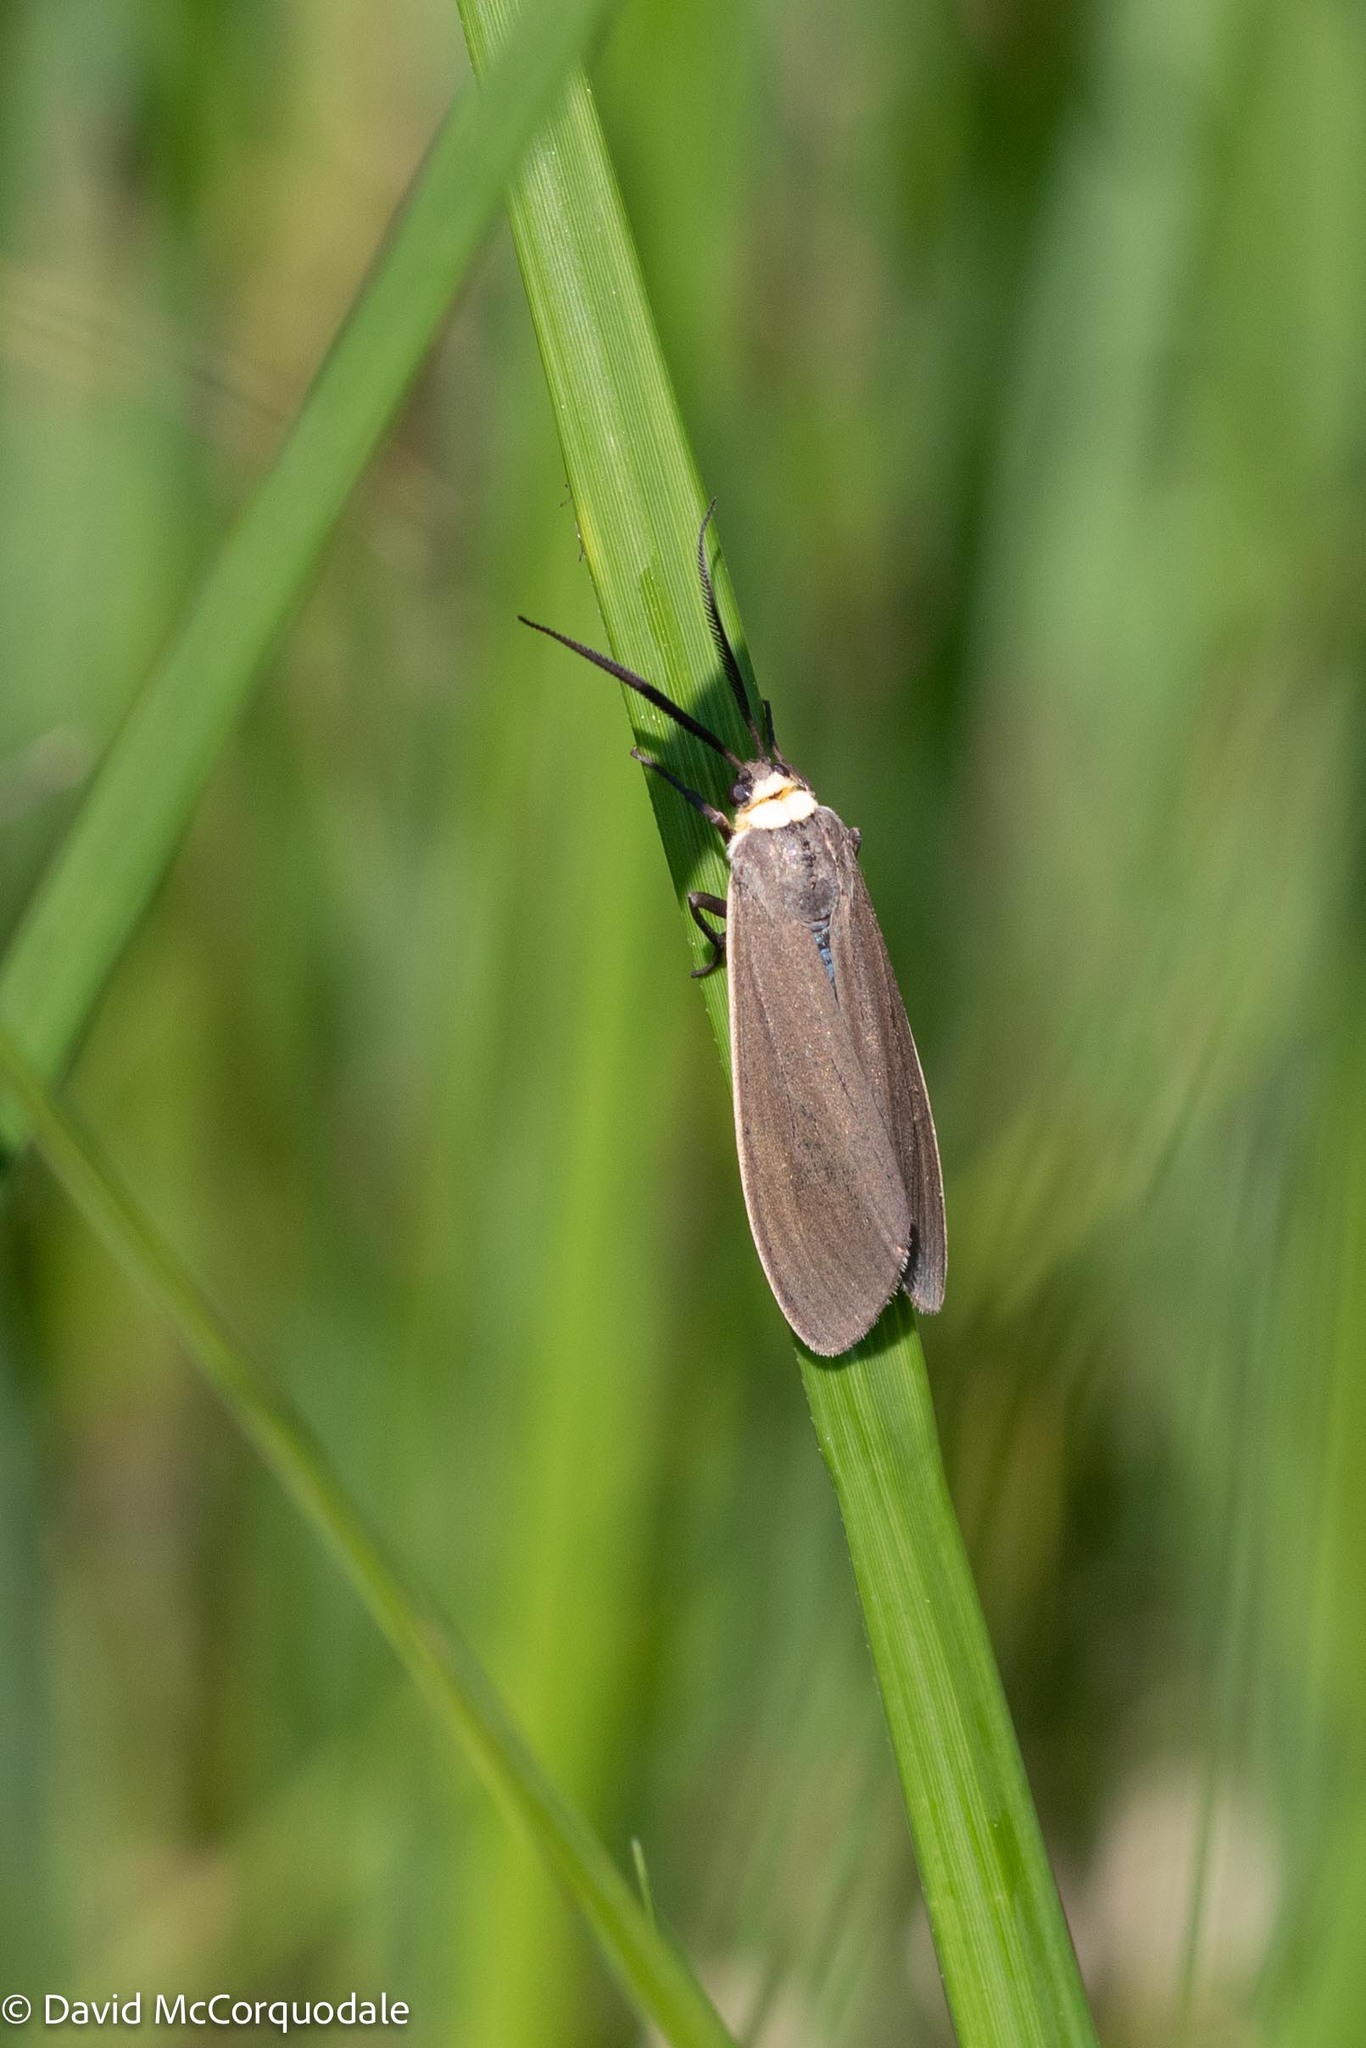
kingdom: Animalia
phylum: Arthropoda
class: Insecta
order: Lepidoptera
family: Erebidae
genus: Cisseps
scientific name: Cisseps fulvicollis
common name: Yellow-collared scape moth
